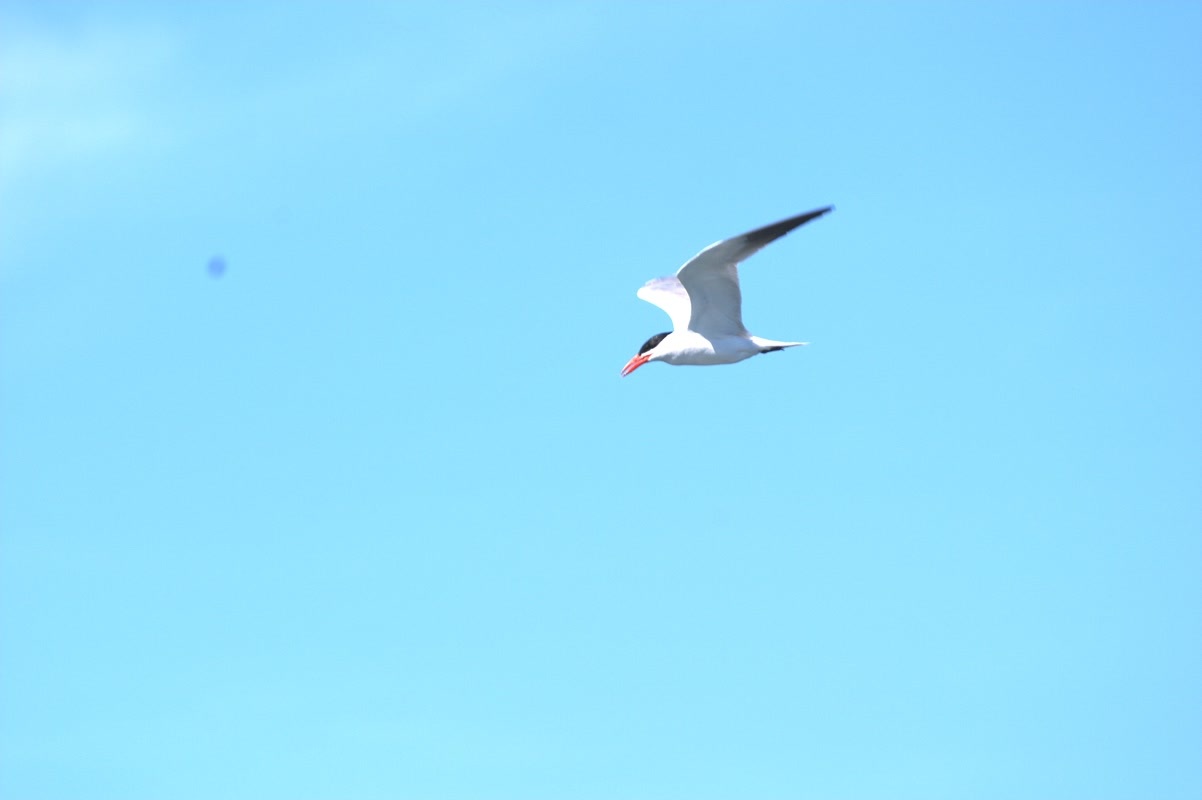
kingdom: Animalia
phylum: Chordata
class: Aves
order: Charadriiformes
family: Laridae
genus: Hydroprogne
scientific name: Hydroprogne caspia
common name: Caspian tern
